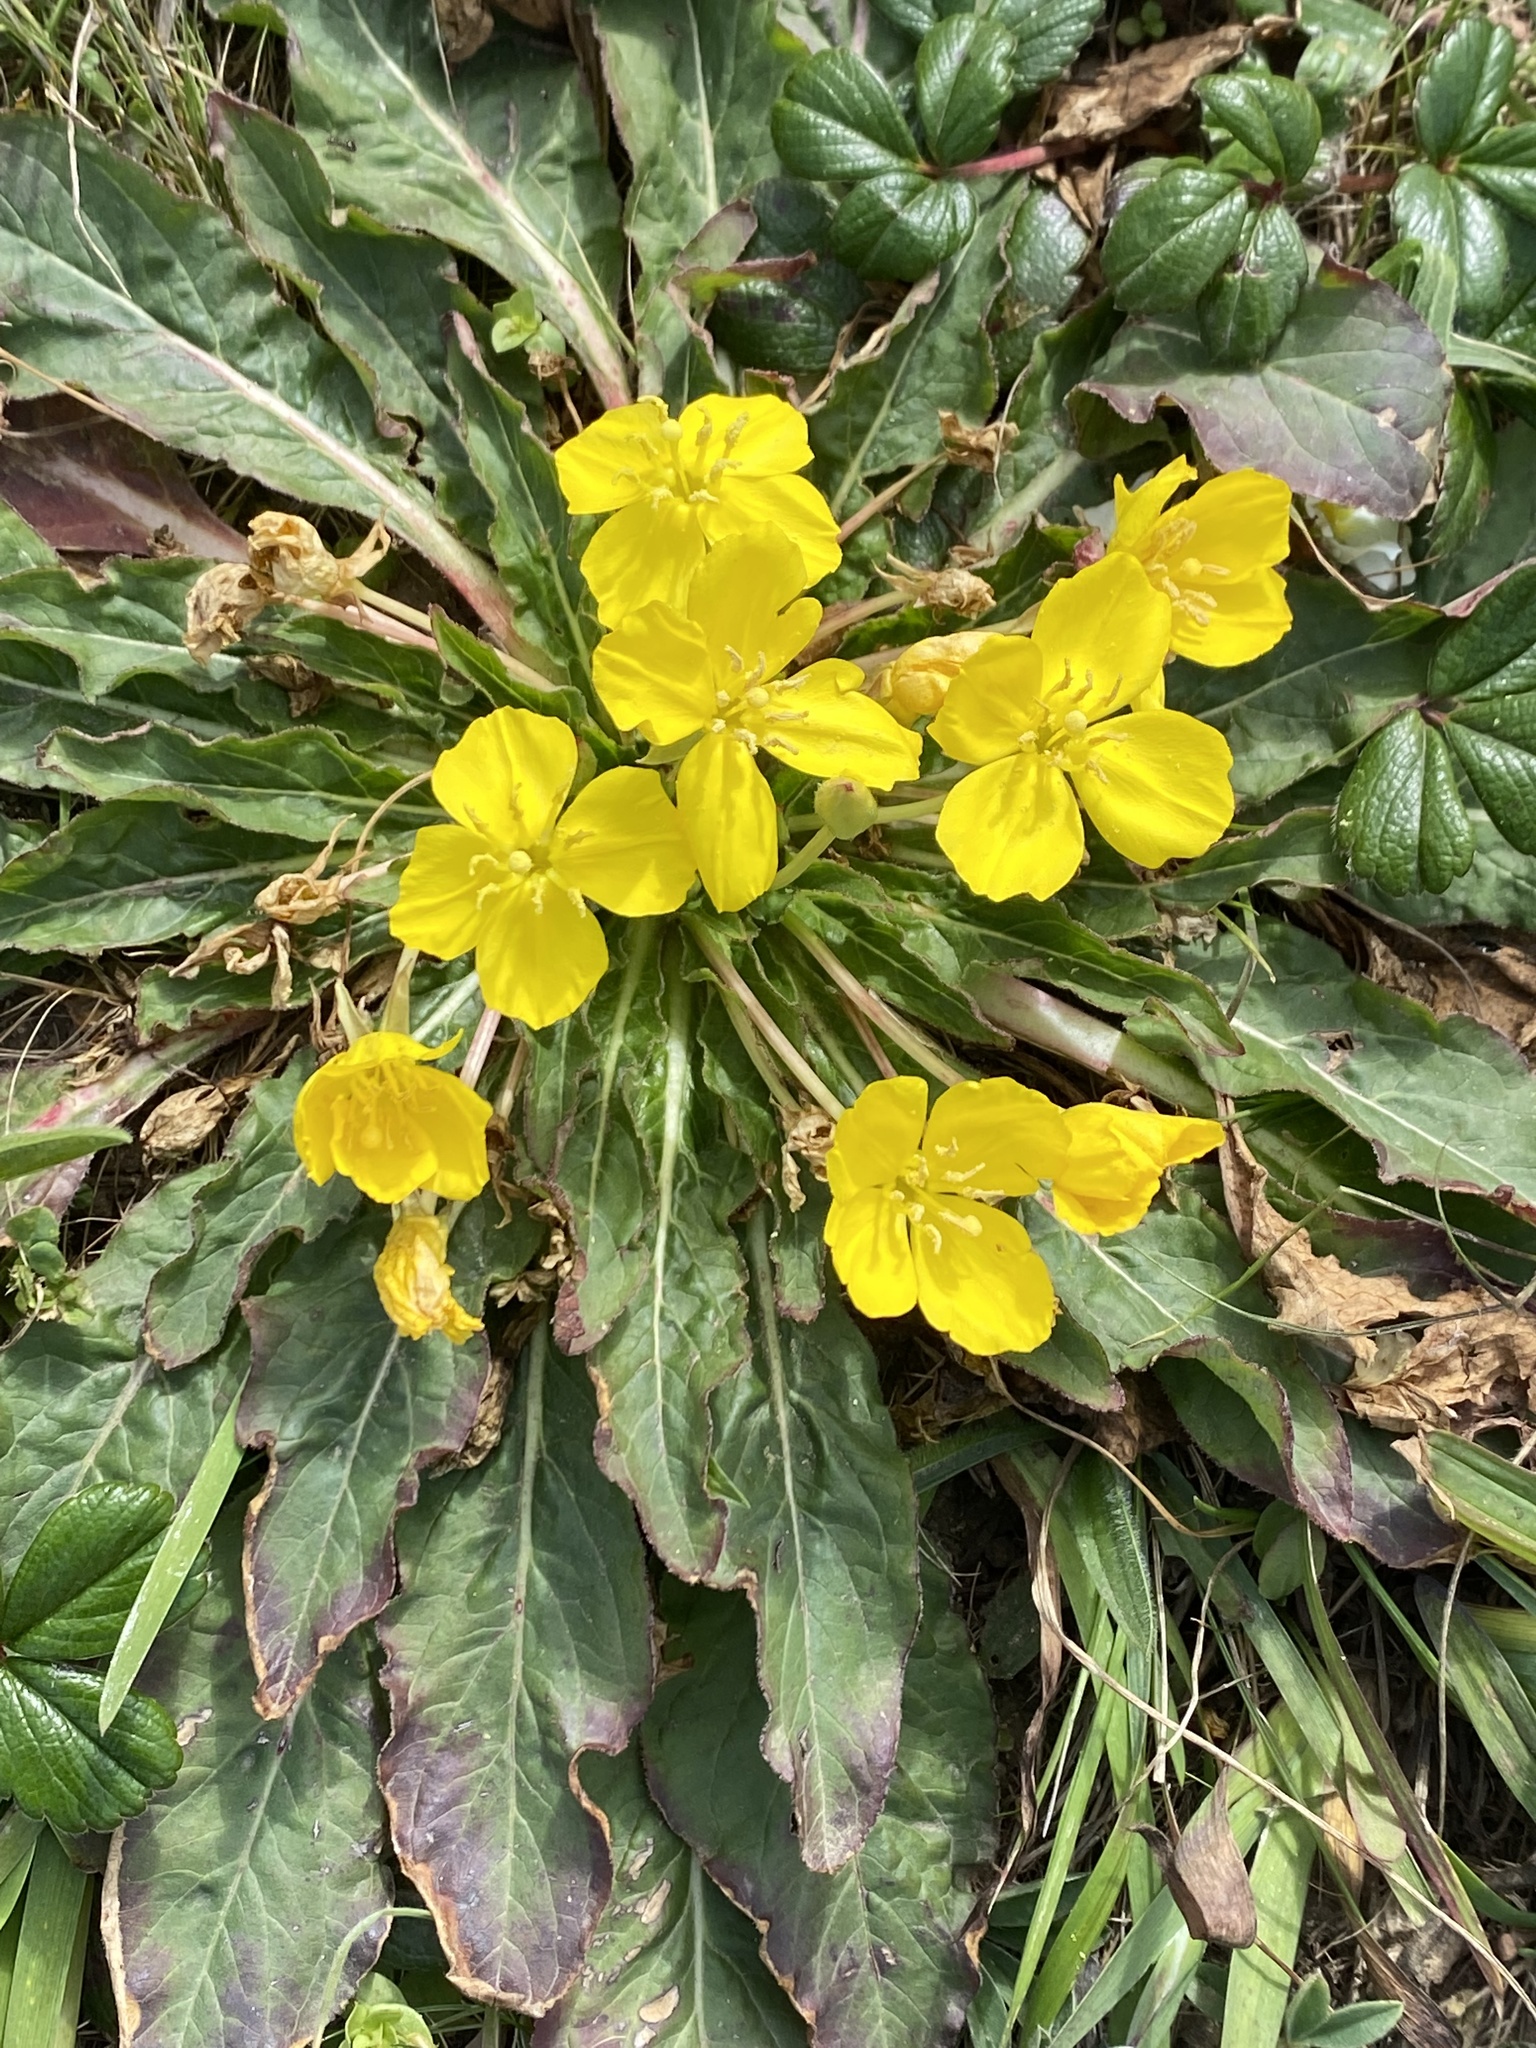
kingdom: Plantae
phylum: Tracheophyta
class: Magnoliopsida
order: Myrtales
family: Onagraceae
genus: Taraxia
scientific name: Taraxia ovata
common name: Goldeneggs
